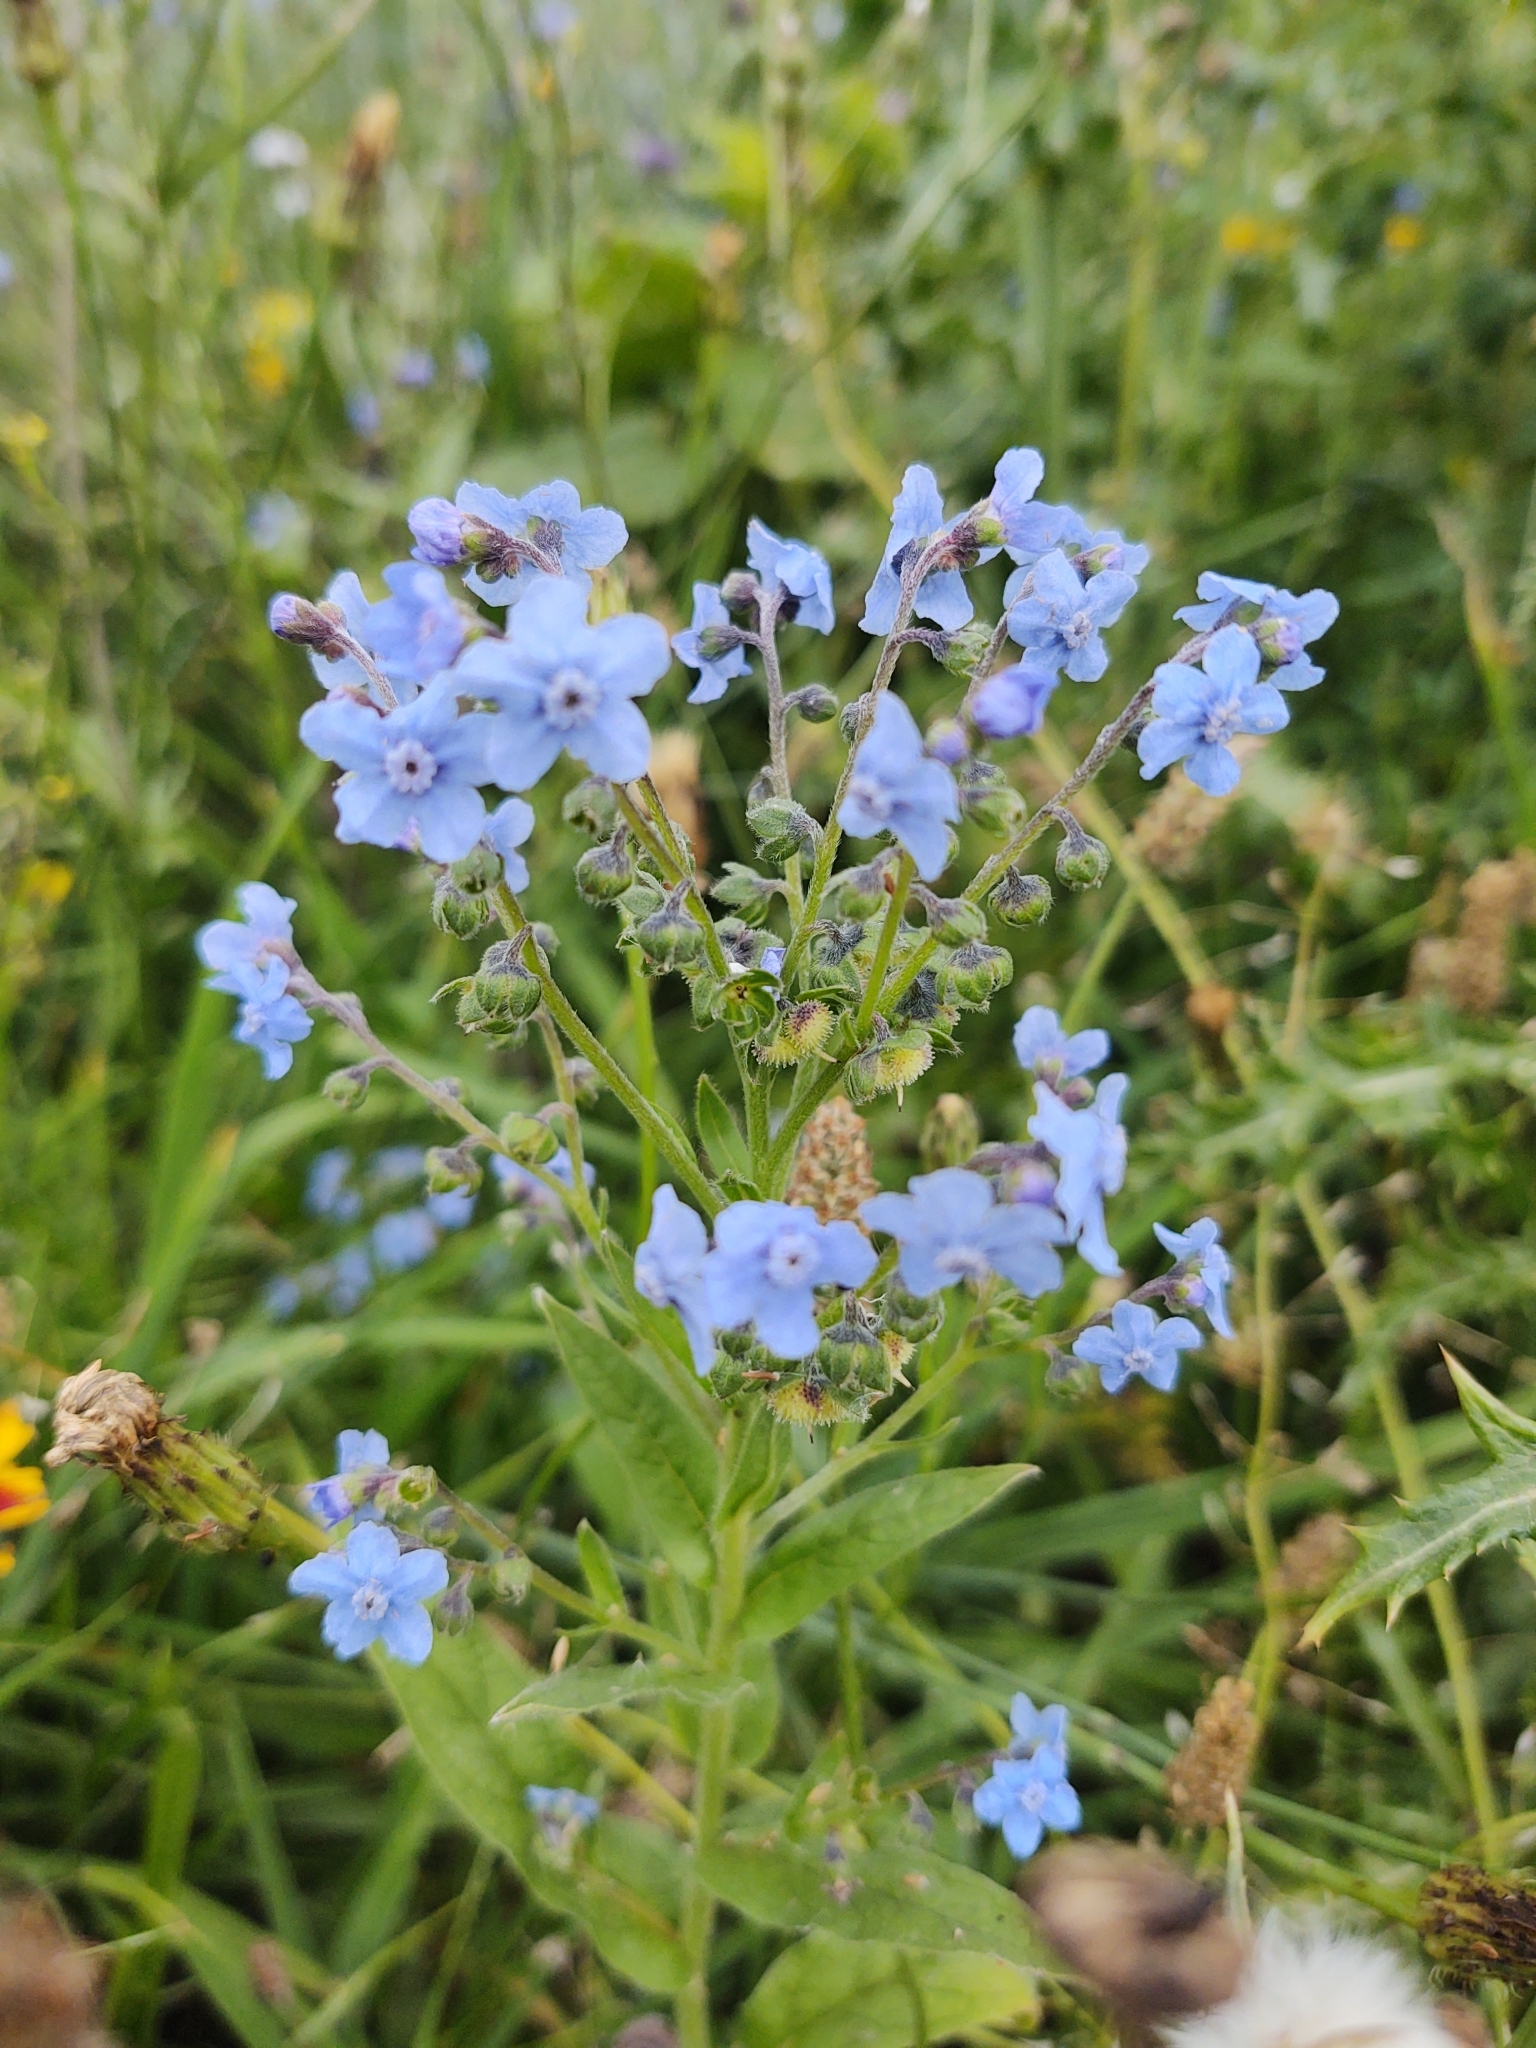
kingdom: Plantae
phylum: Tracheophyta
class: Magnoliopsida
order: Boraginales
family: Boraginaceae
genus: Cynoglossum
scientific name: Cynoglossum amabile
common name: Chinese hound's tongue
